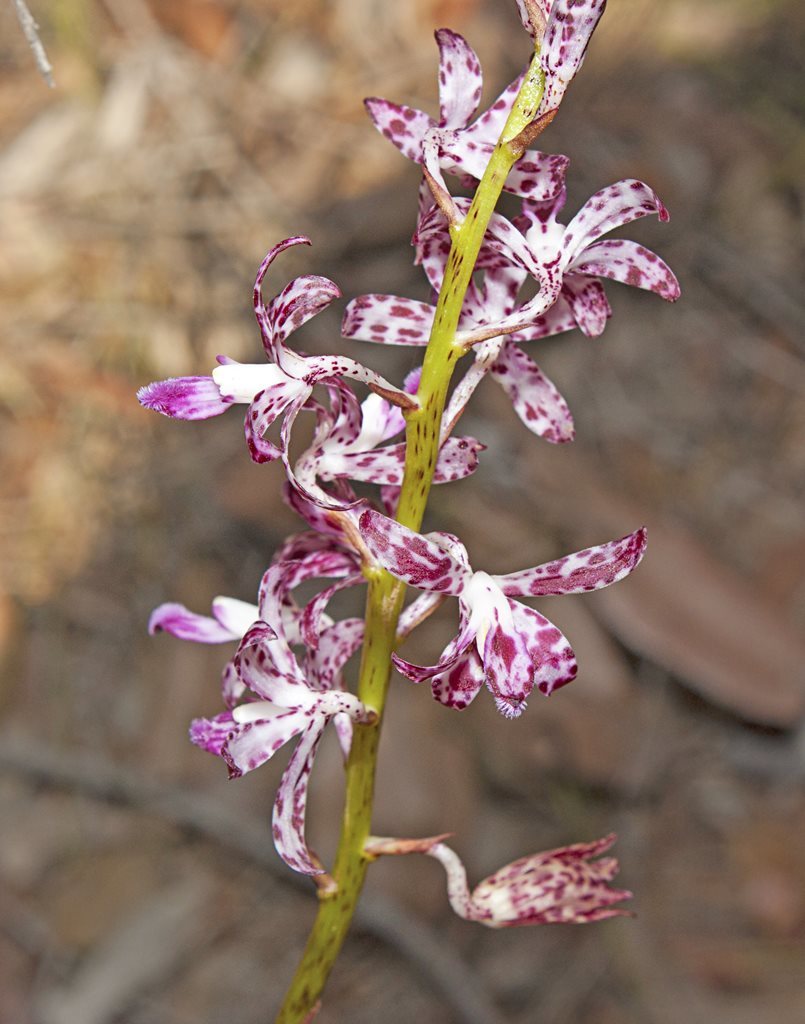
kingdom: Plantae
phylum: Tracheophyta
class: Liliopsida
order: Asparagales
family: Orchidaceae
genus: Dipodium
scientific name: Dipodium variegatum
